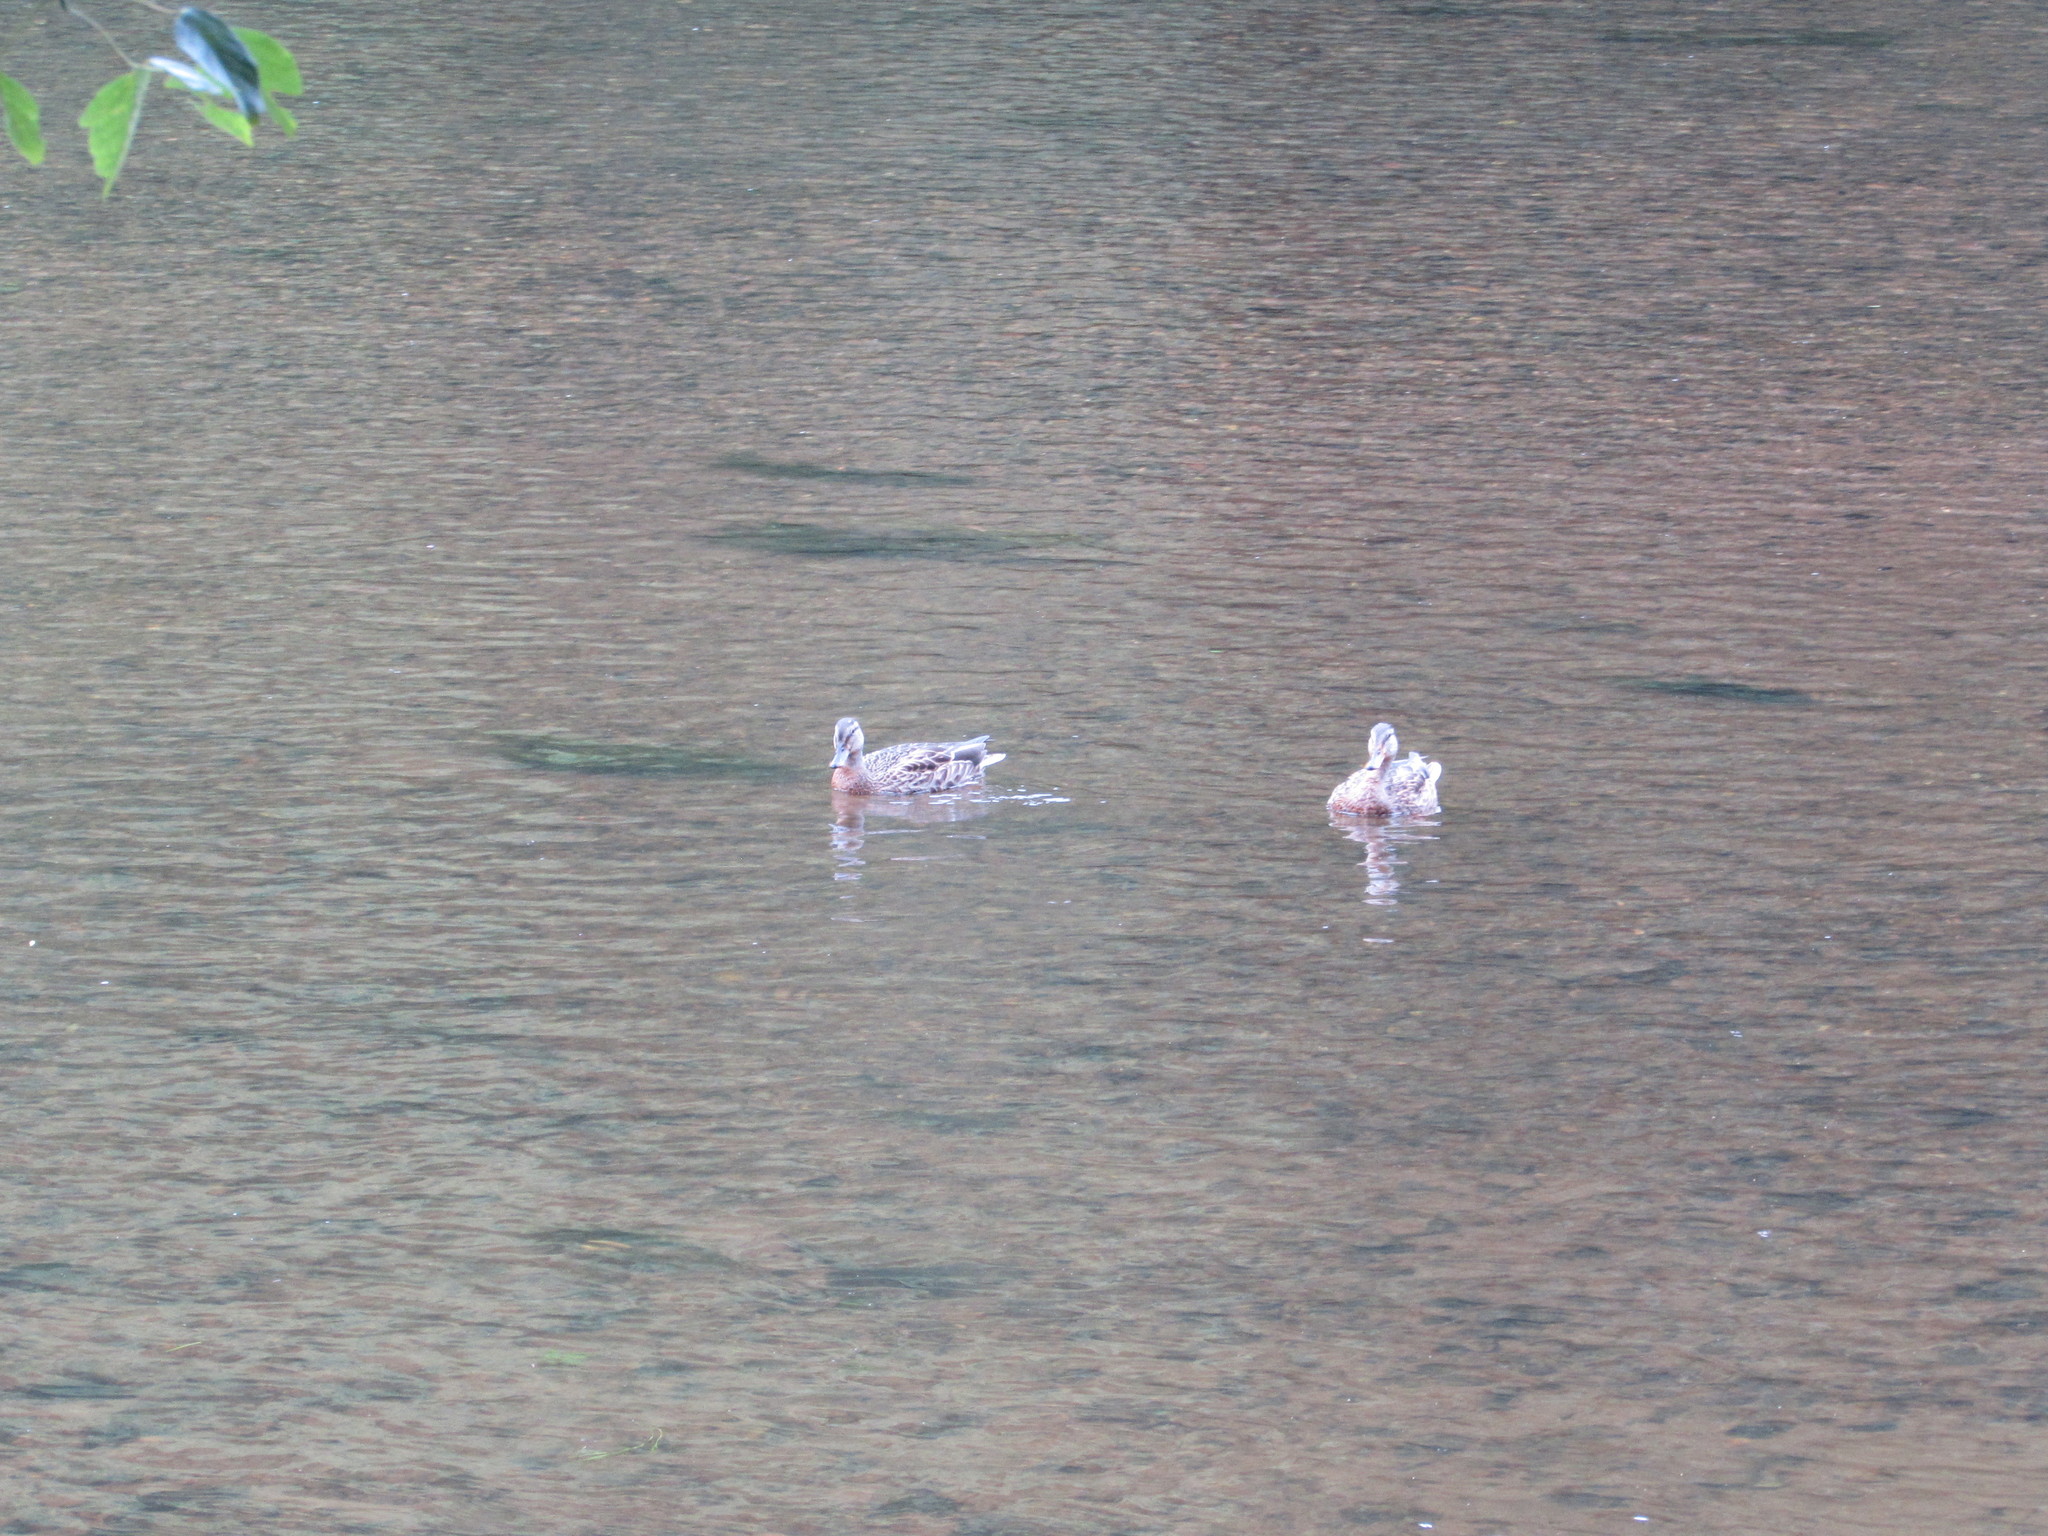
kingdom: Animalia
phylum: Chordata
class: Aves
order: Anseriformes
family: Anatidae
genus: Anas
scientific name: Anas platyrhynchos
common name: Mallard
